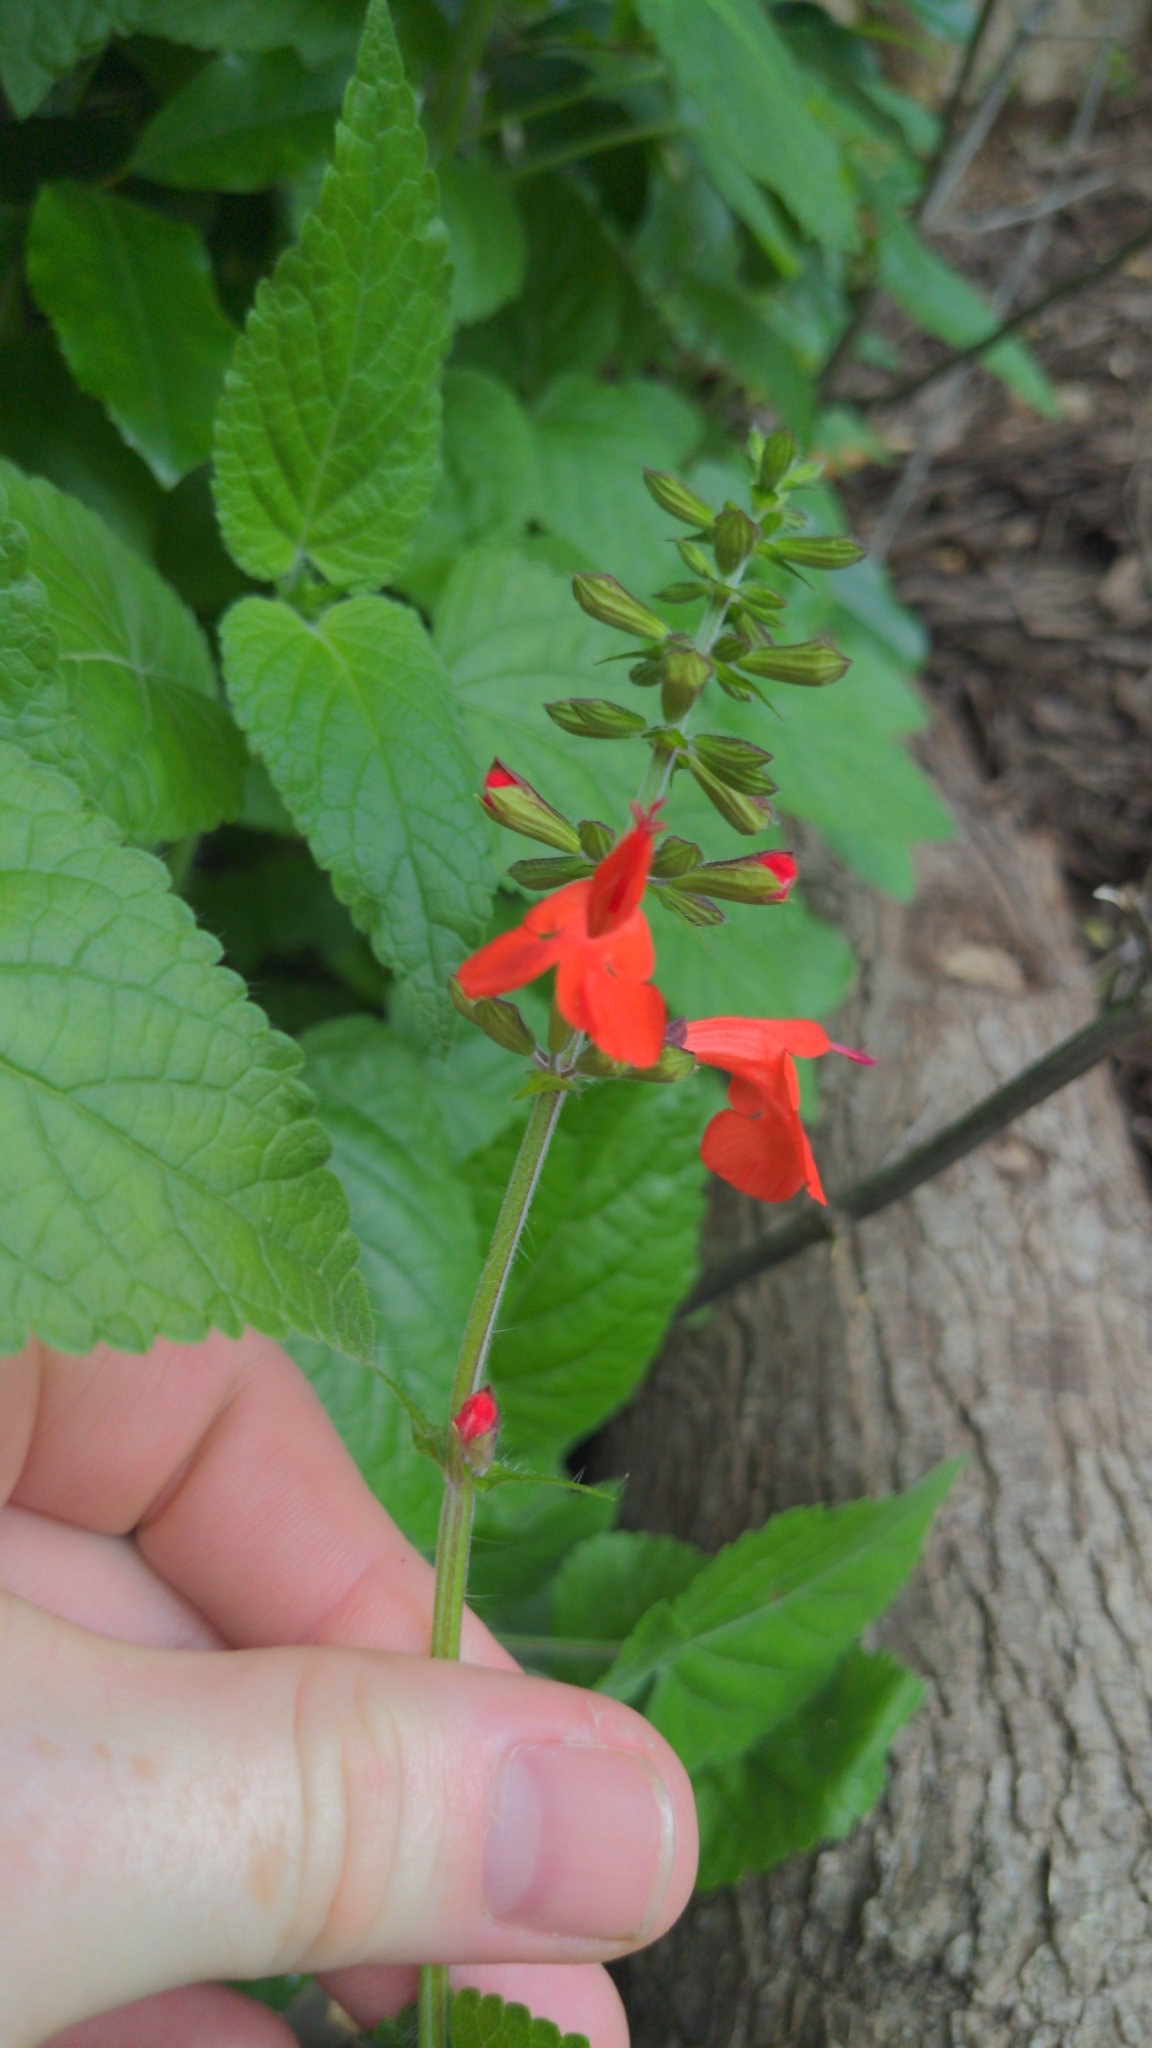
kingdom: Plantae
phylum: Tracheophyta
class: Magnoliopsida
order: Lamiales
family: Lamiaceae
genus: Salvia
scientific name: Salvia coccinea
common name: Blood sage
